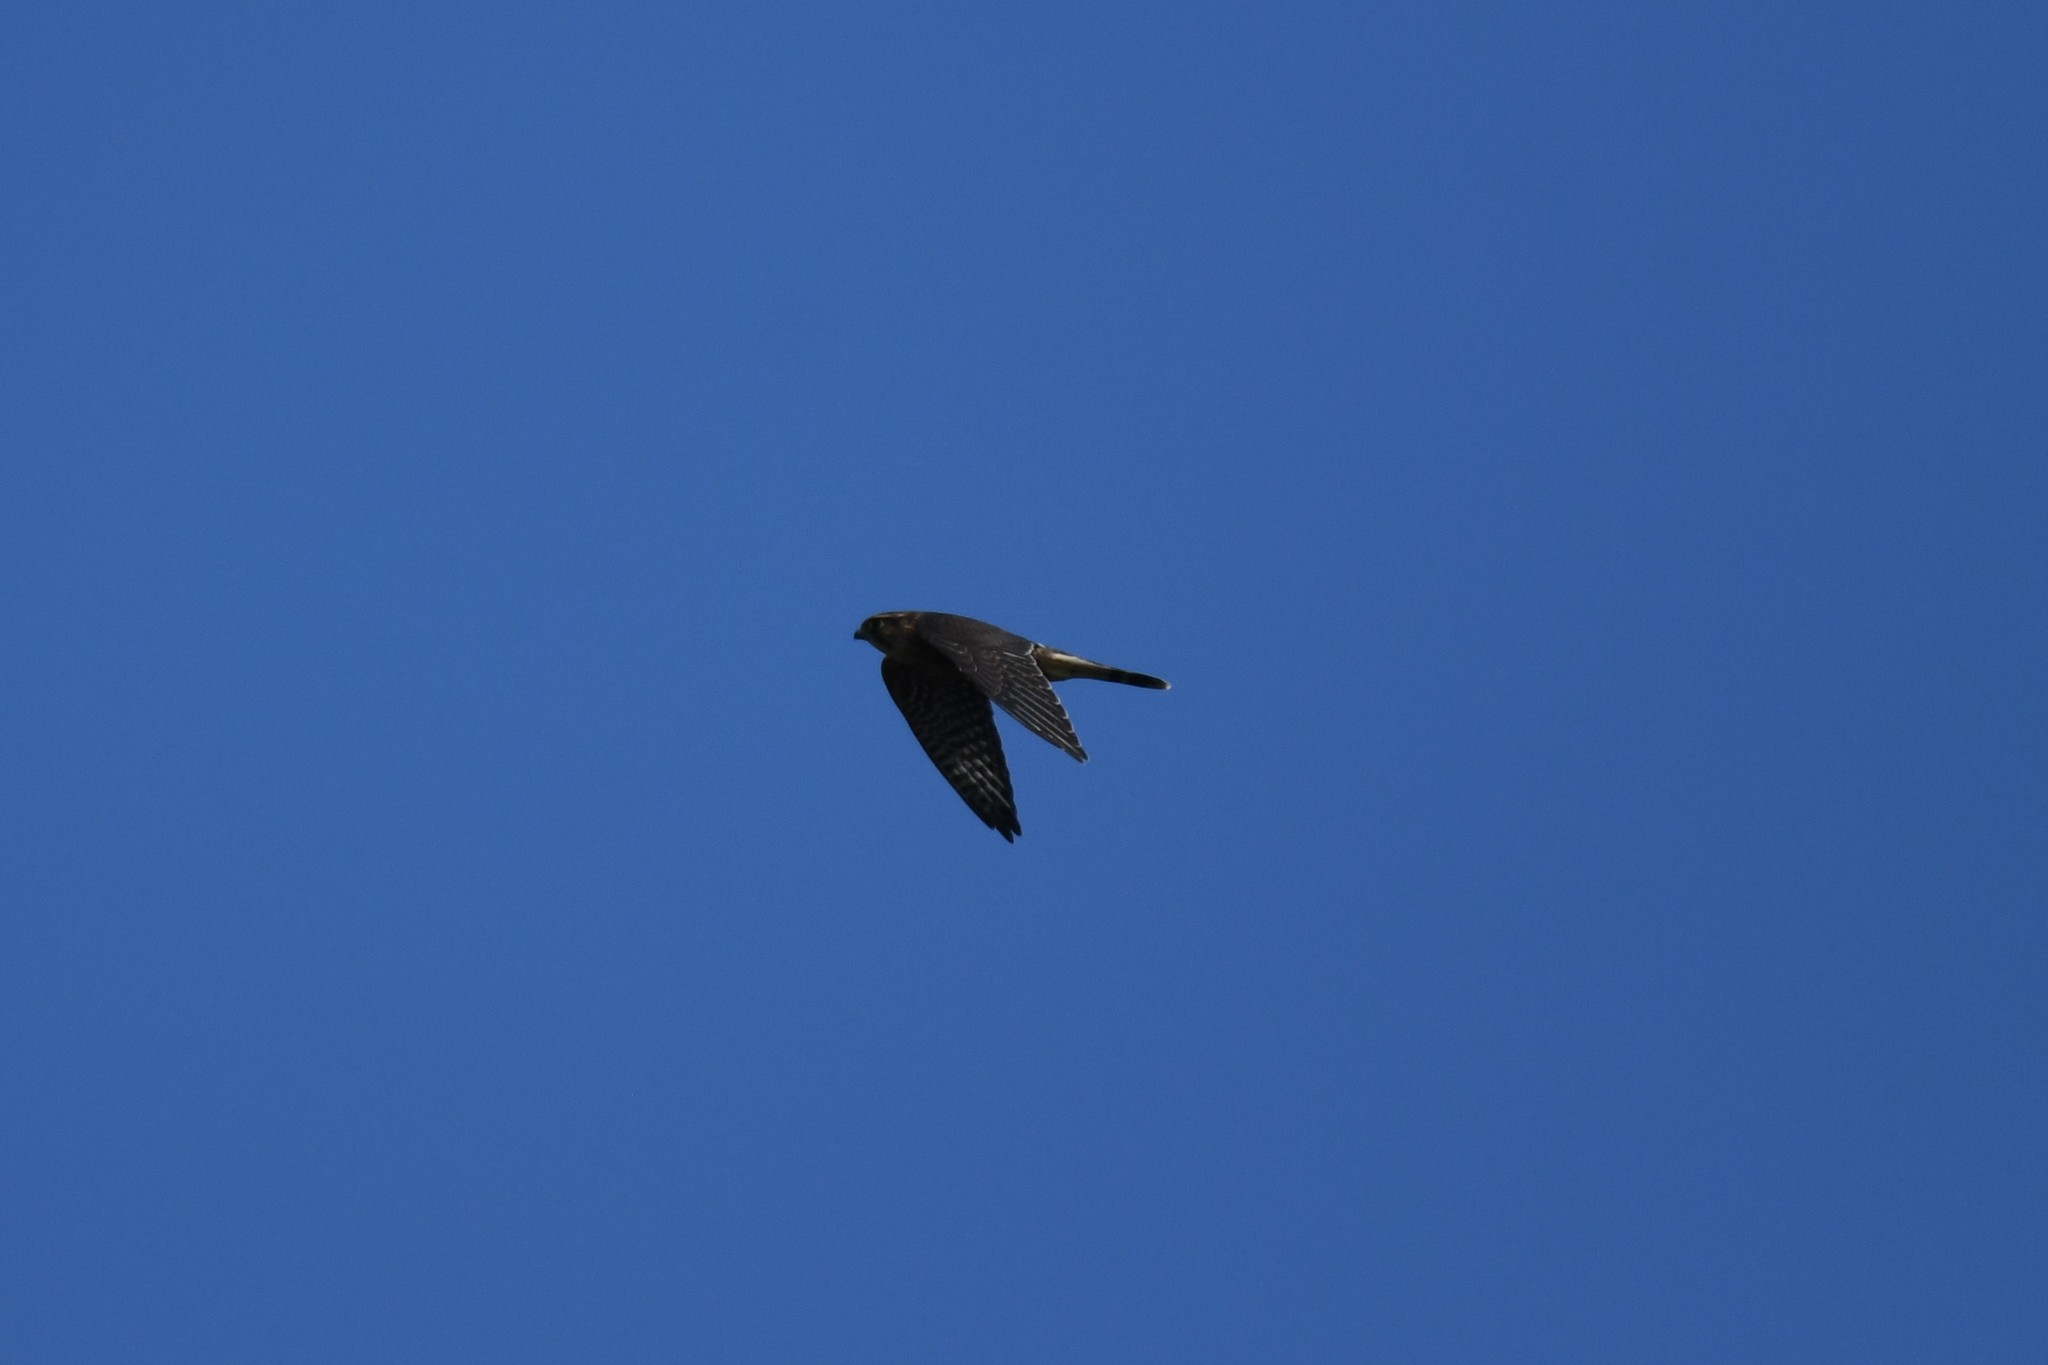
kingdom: Animalia
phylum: Chordata
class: Aves
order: Falconiformes
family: Falconidae
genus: Falco
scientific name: Falco columbarius
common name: Merlin
